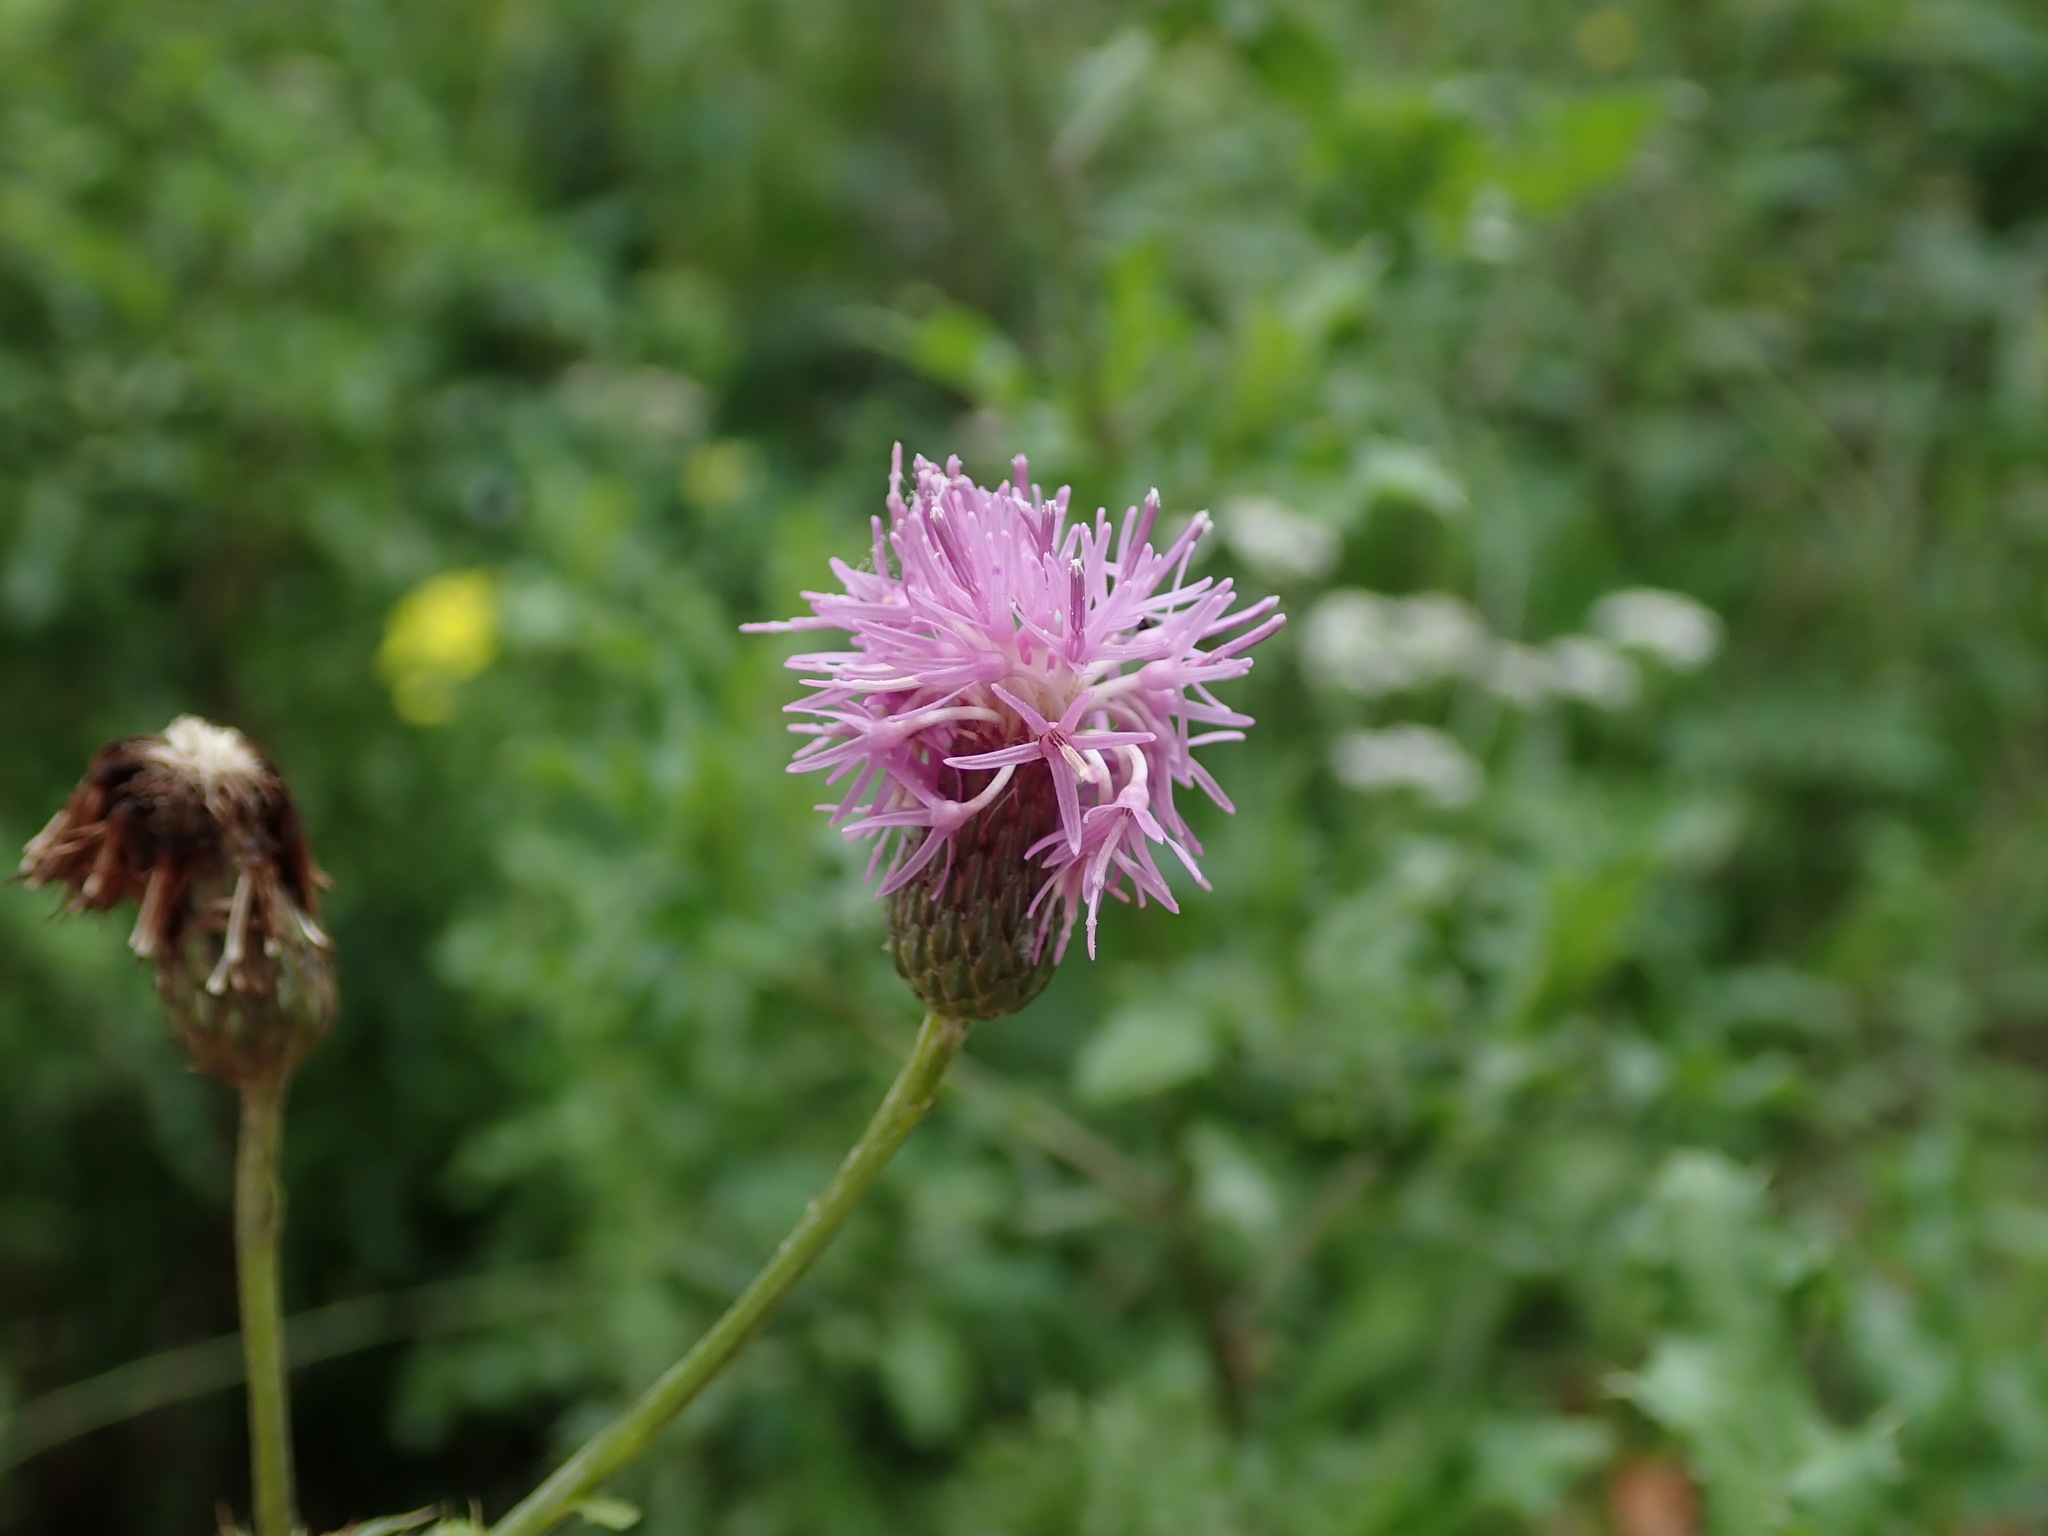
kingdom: Plantae
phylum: Tracheophyta
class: Magnoliopsida
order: Asterales
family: Asteraceae
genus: Cirsium
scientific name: Cirsium arvense
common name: Creeping thistle
